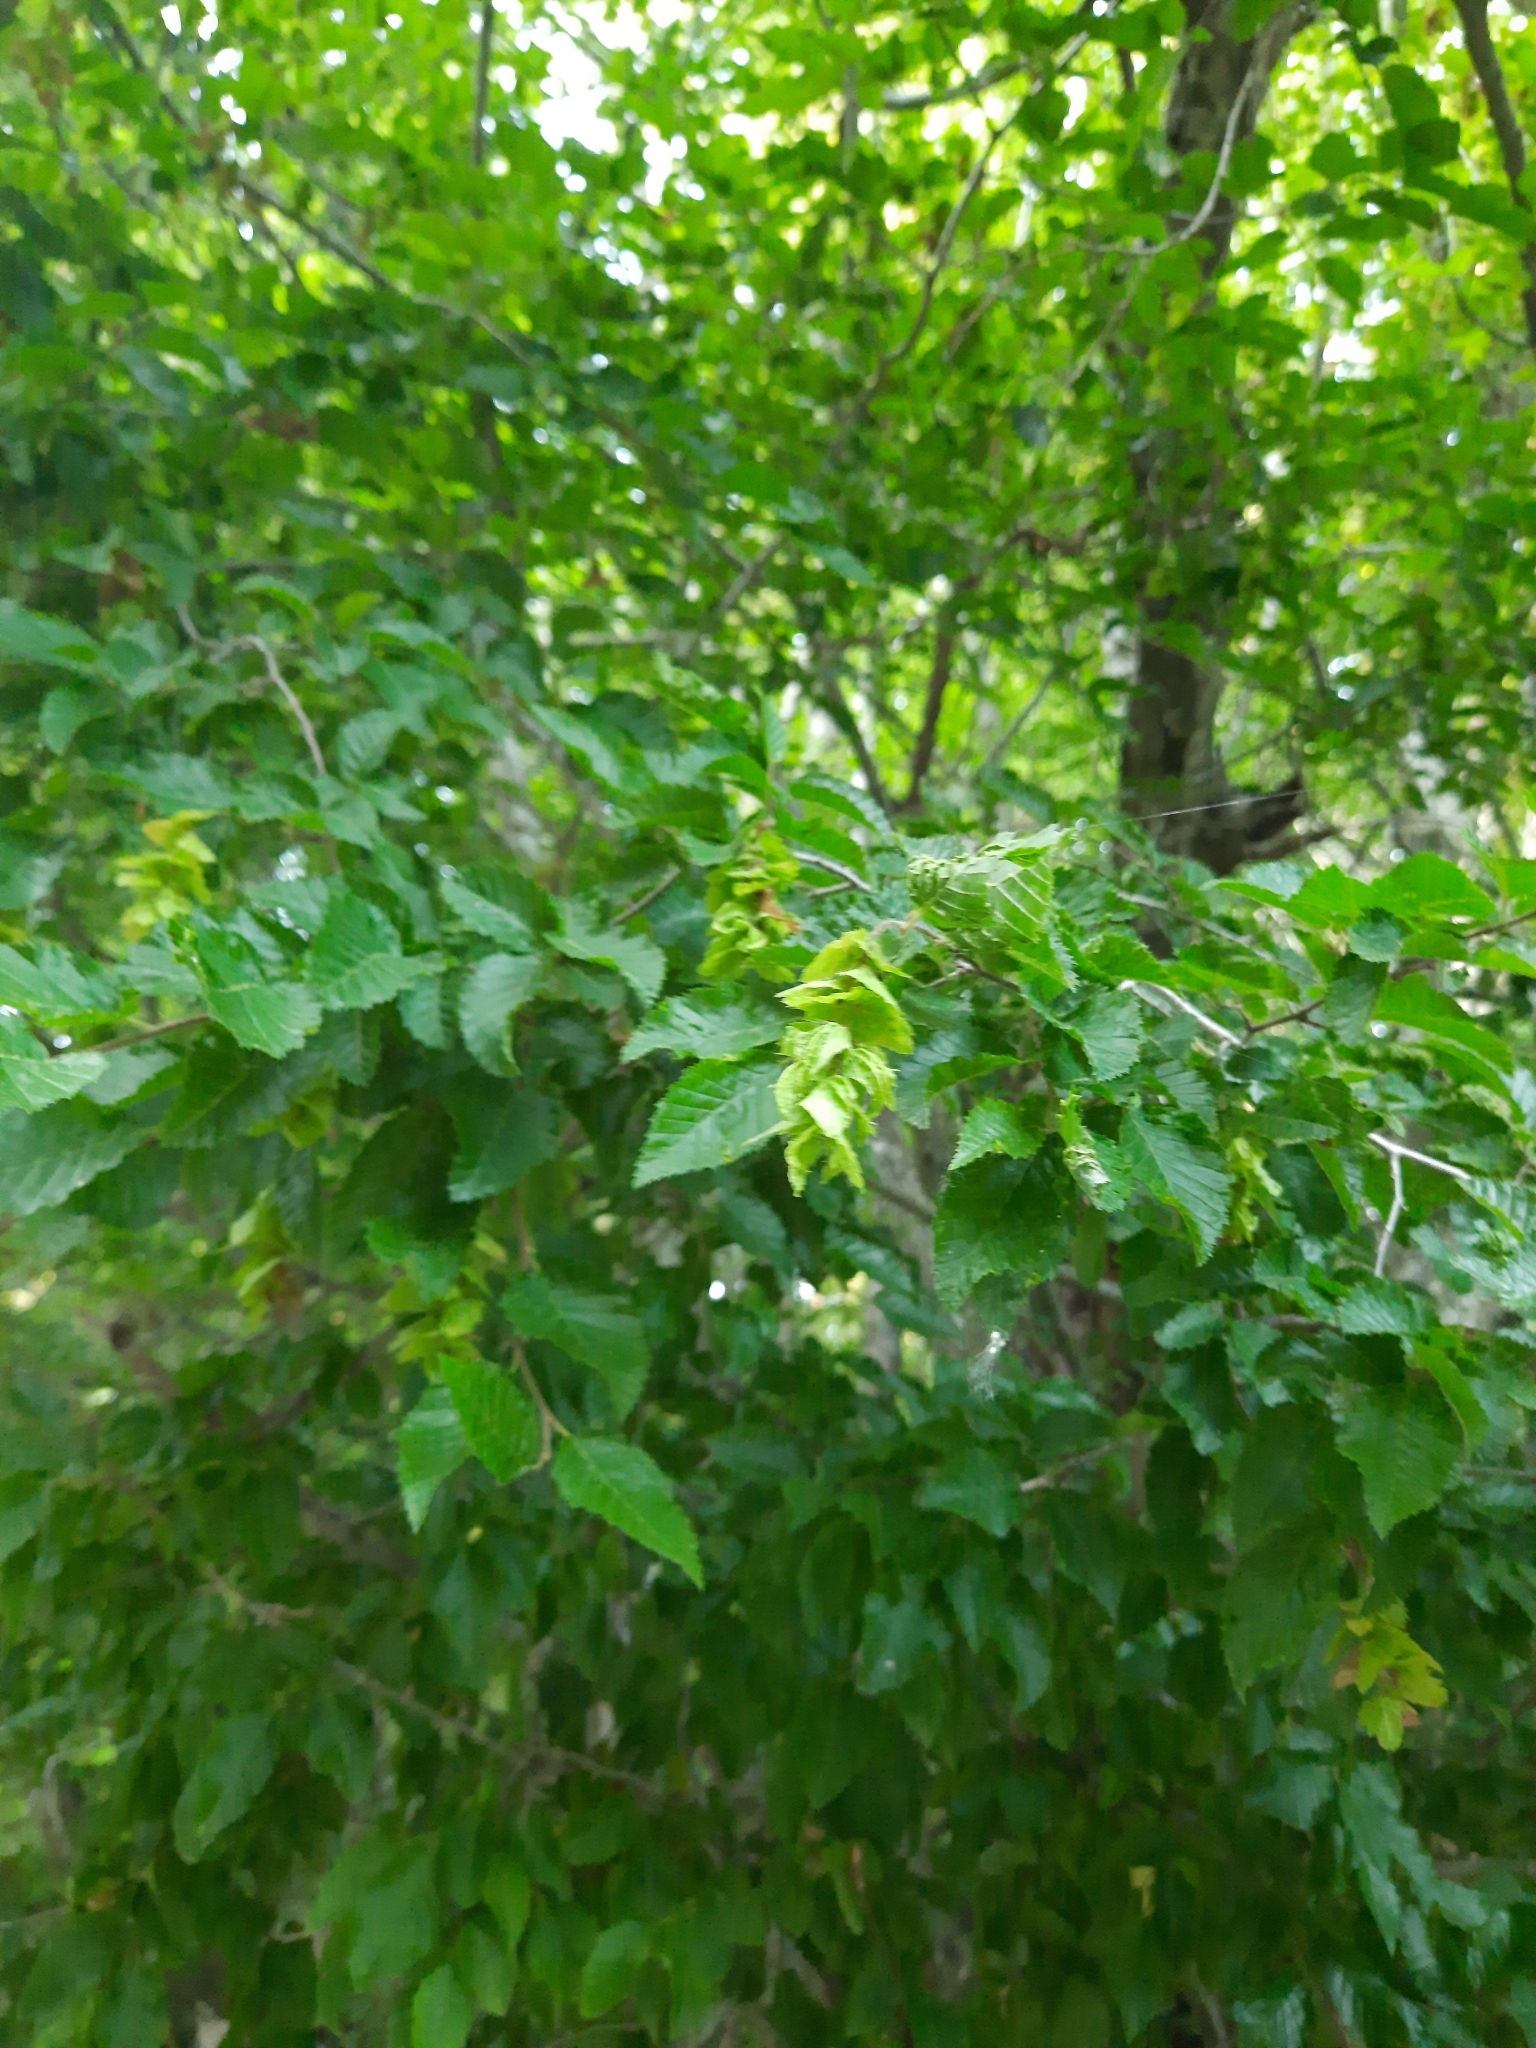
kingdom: Plantae
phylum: Tracheophyta
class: Magnoliopsida
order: Fagales
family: Betulaceae
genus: Carpinus
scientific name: Carpinus orientalis
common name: Eastern hornbeam
